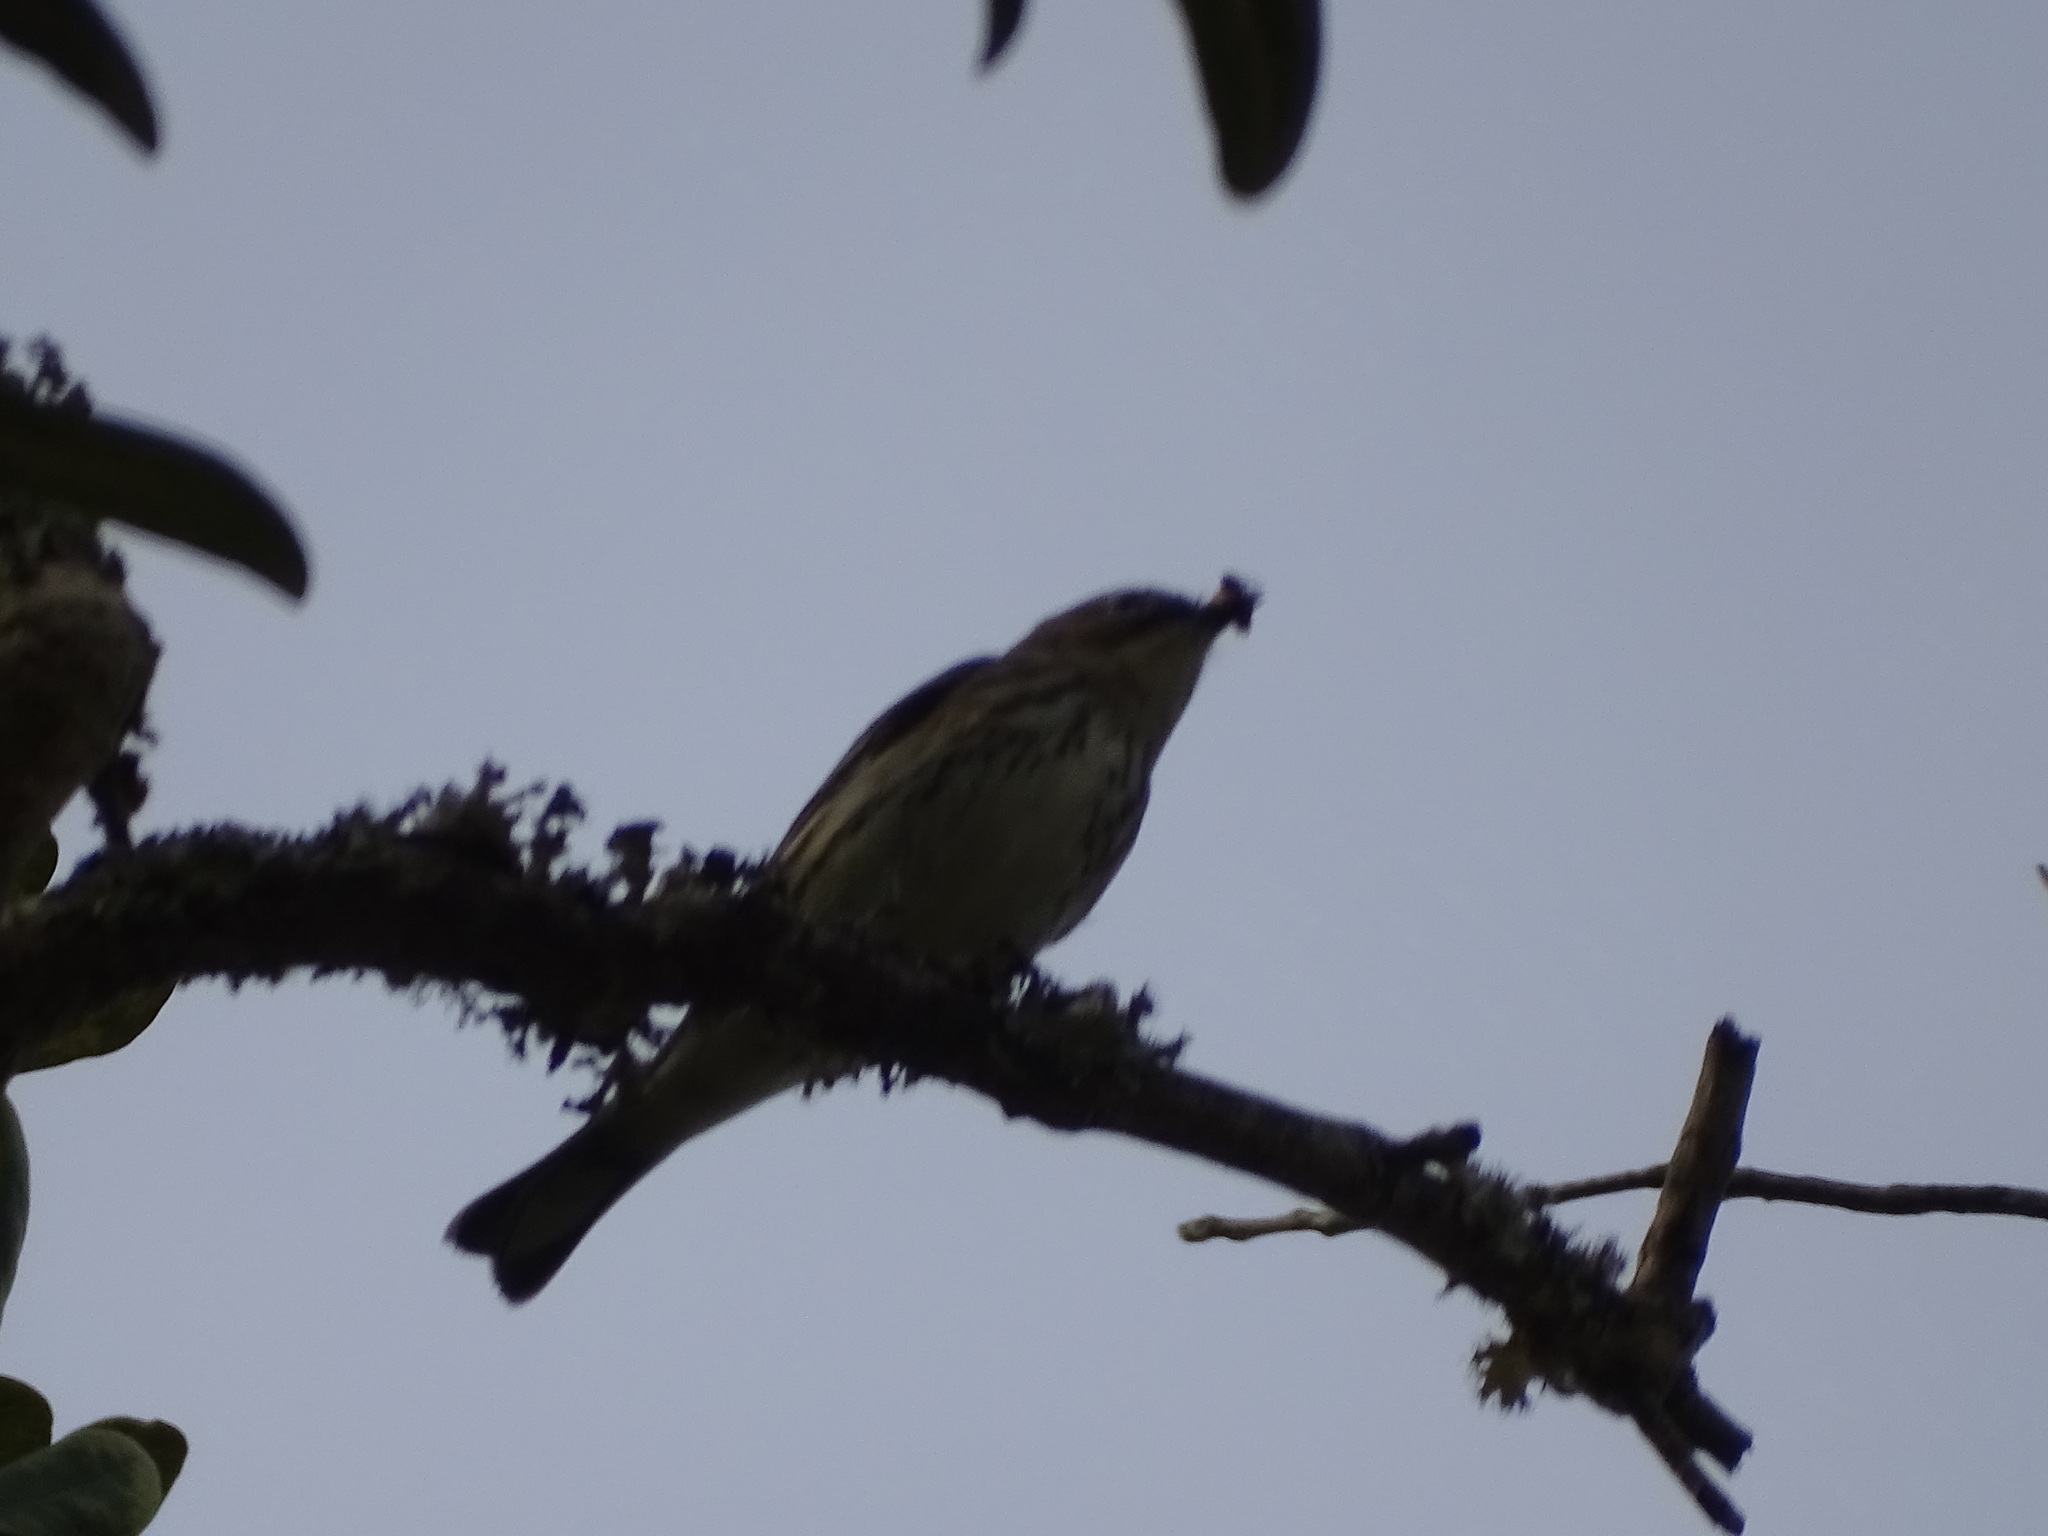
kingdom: Animalia
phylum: Chordata
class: Aves
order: Passeriformes
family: Parulidae
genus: Setophaga
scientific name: Setophaga coronata
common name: Myrtle warbler
